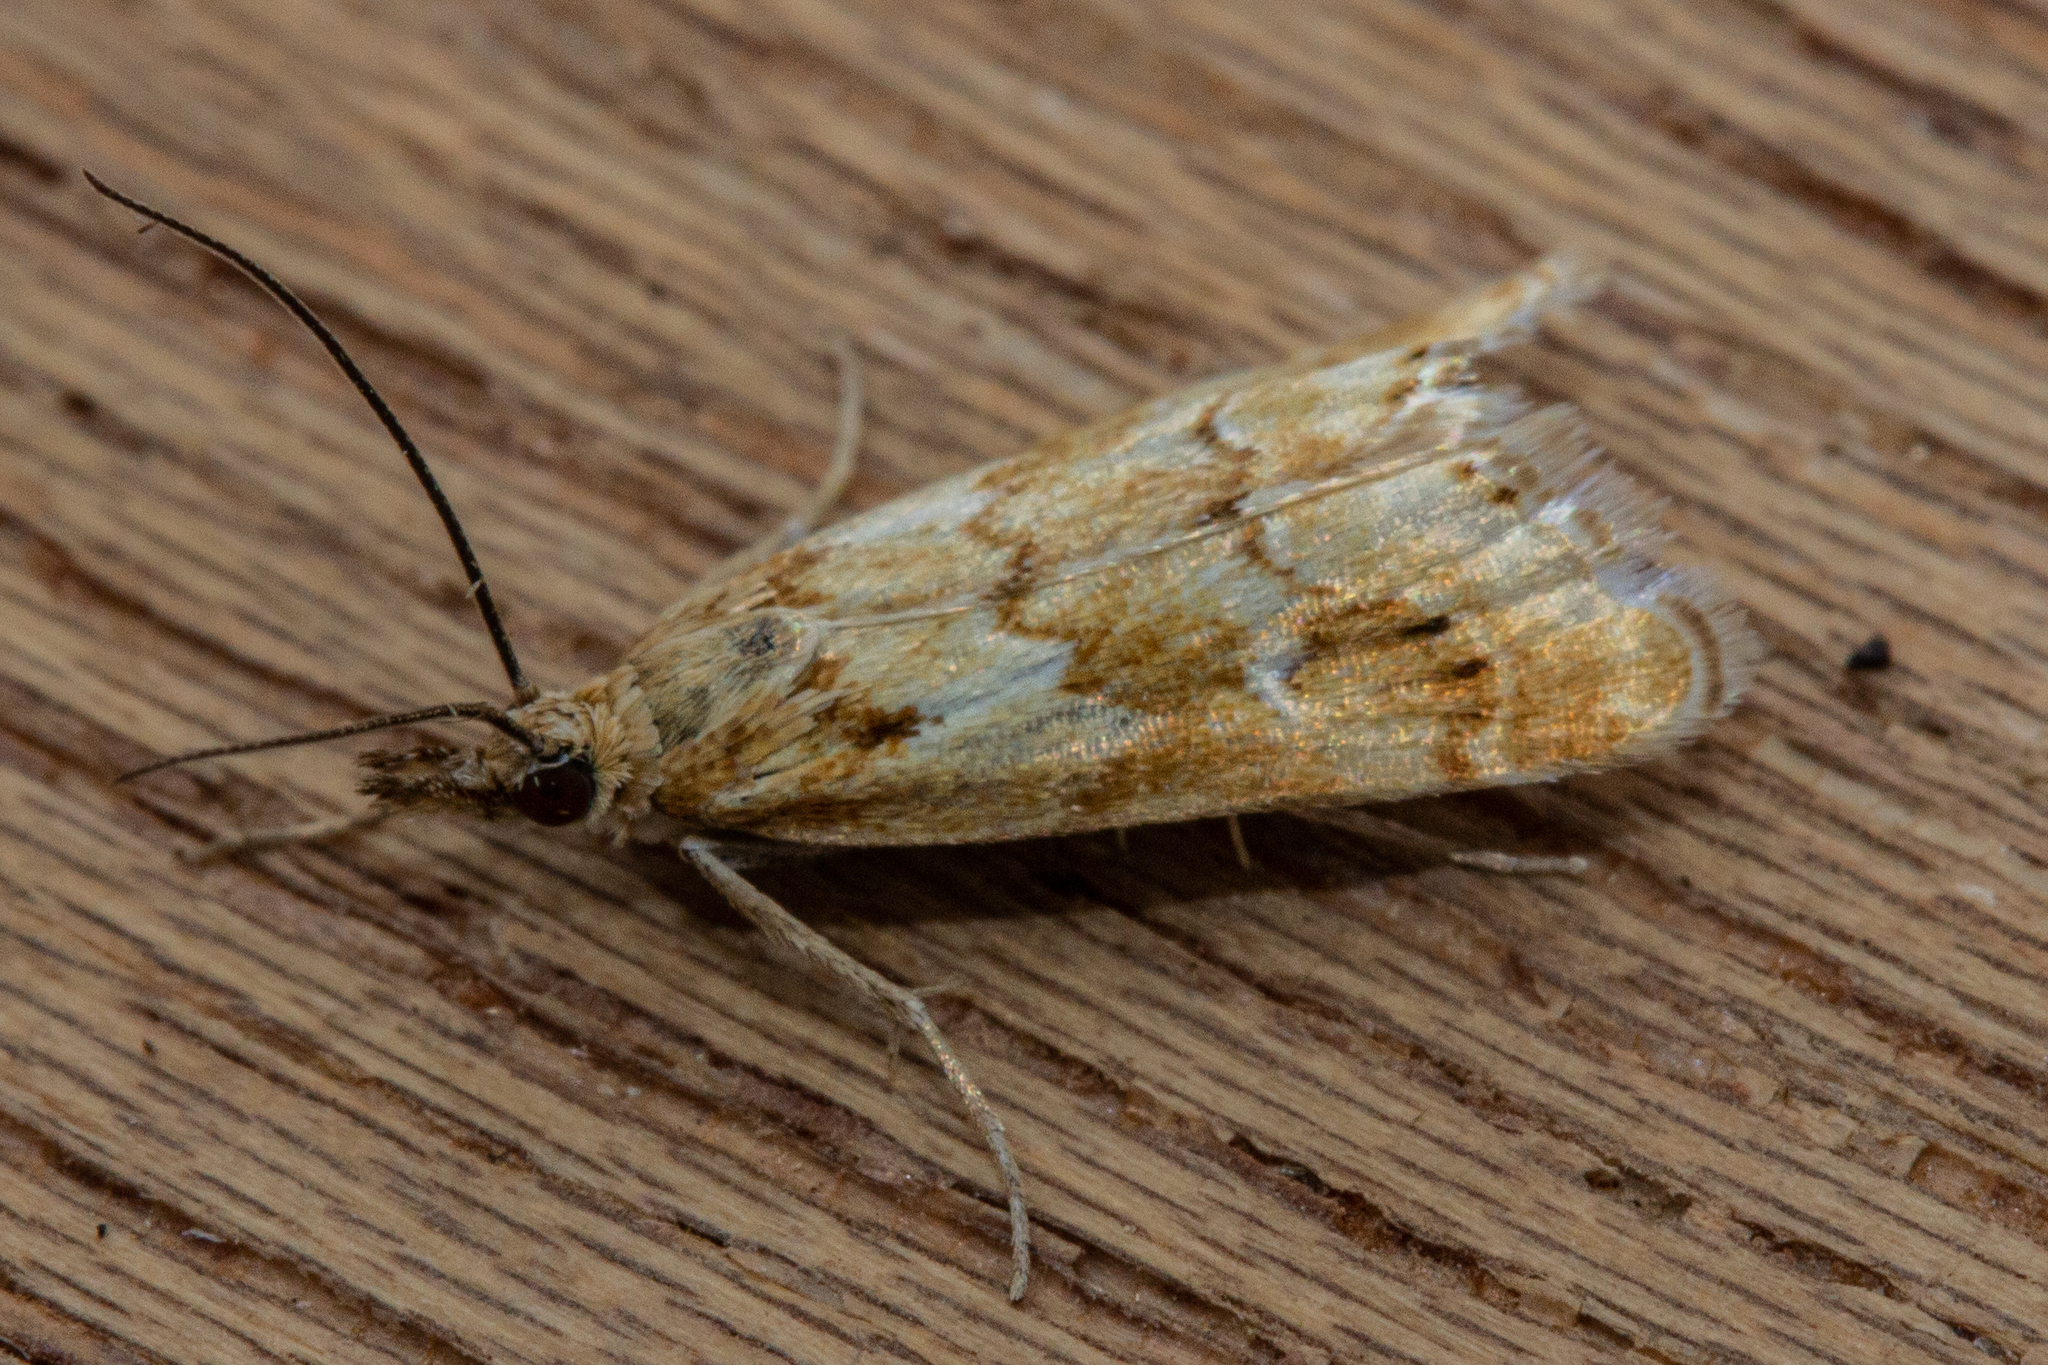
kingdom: Animalia
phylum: Arthropoda
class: Insecta
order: Lepidoptera
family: Crambidae
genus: Glaucocharis
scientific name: Glaucocharis helioctypa
